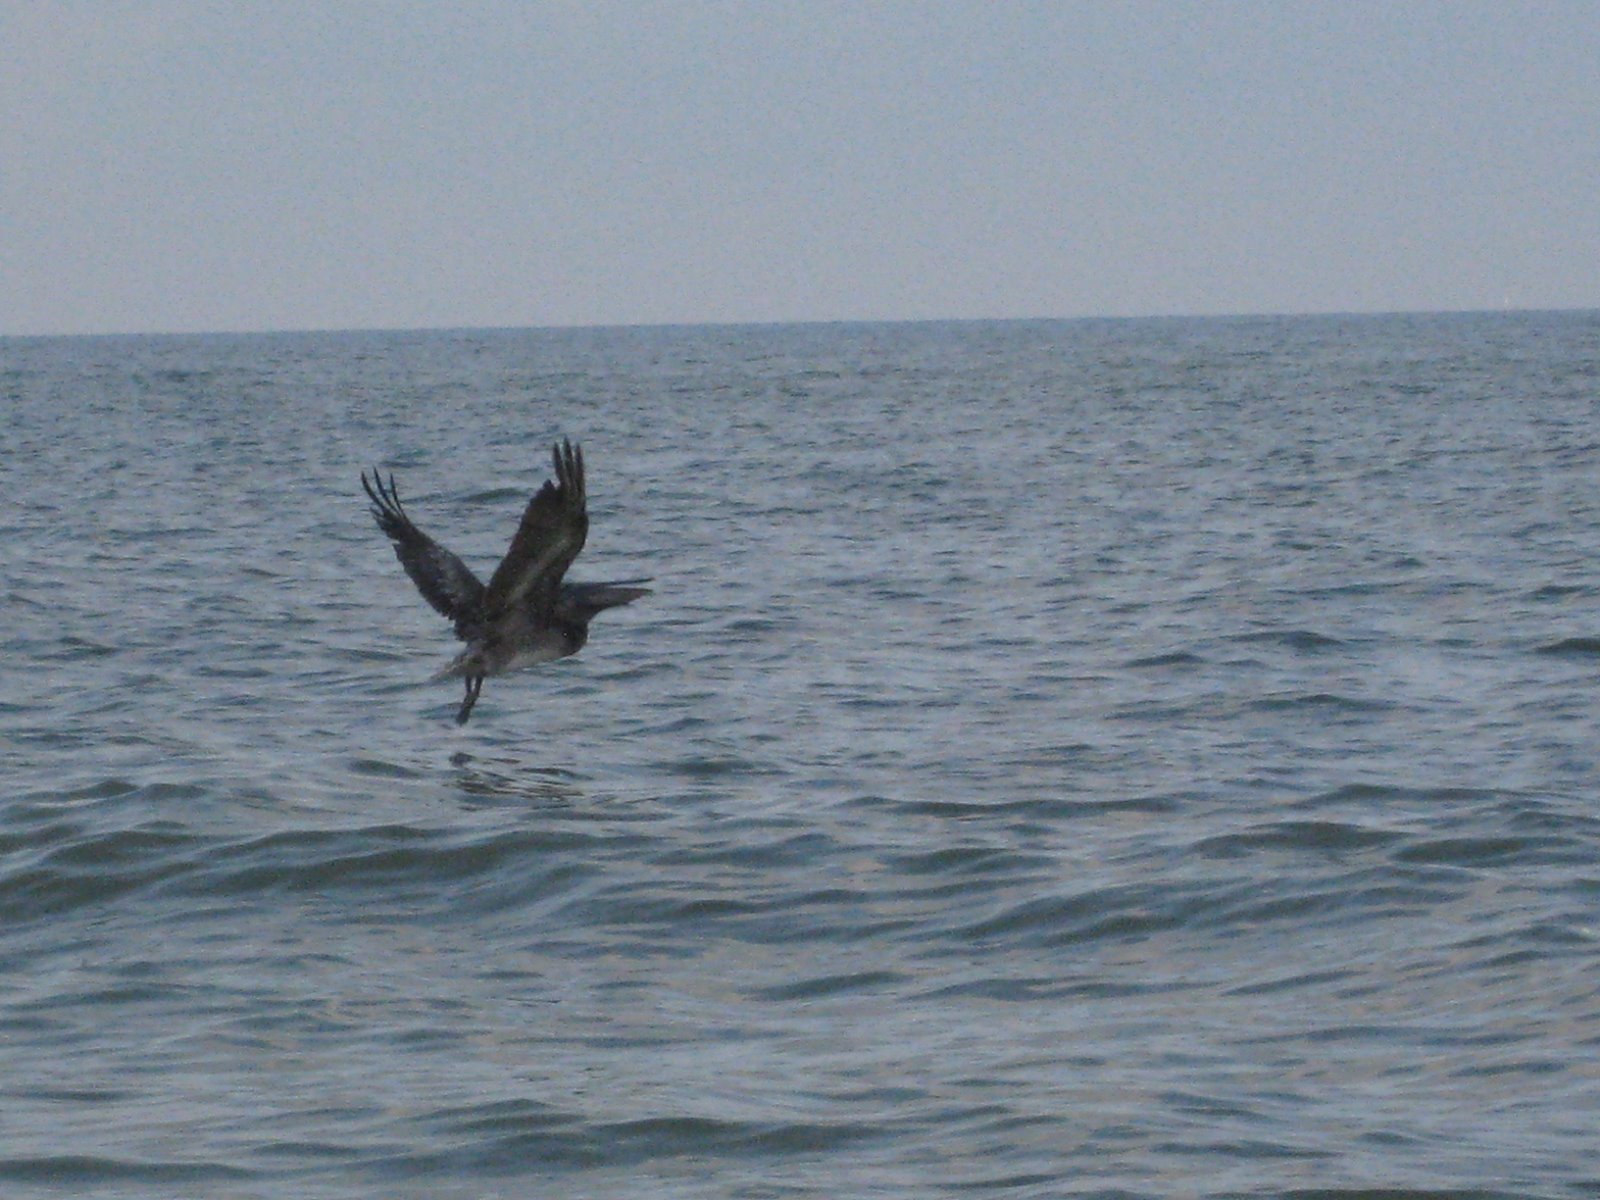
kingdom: Animalia
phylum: Chordata
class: Aves
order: Pelecaniformes
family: Pelecanidae
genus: Pelecanus
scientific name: Pelecanus occidentalis
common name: Brown pelican
